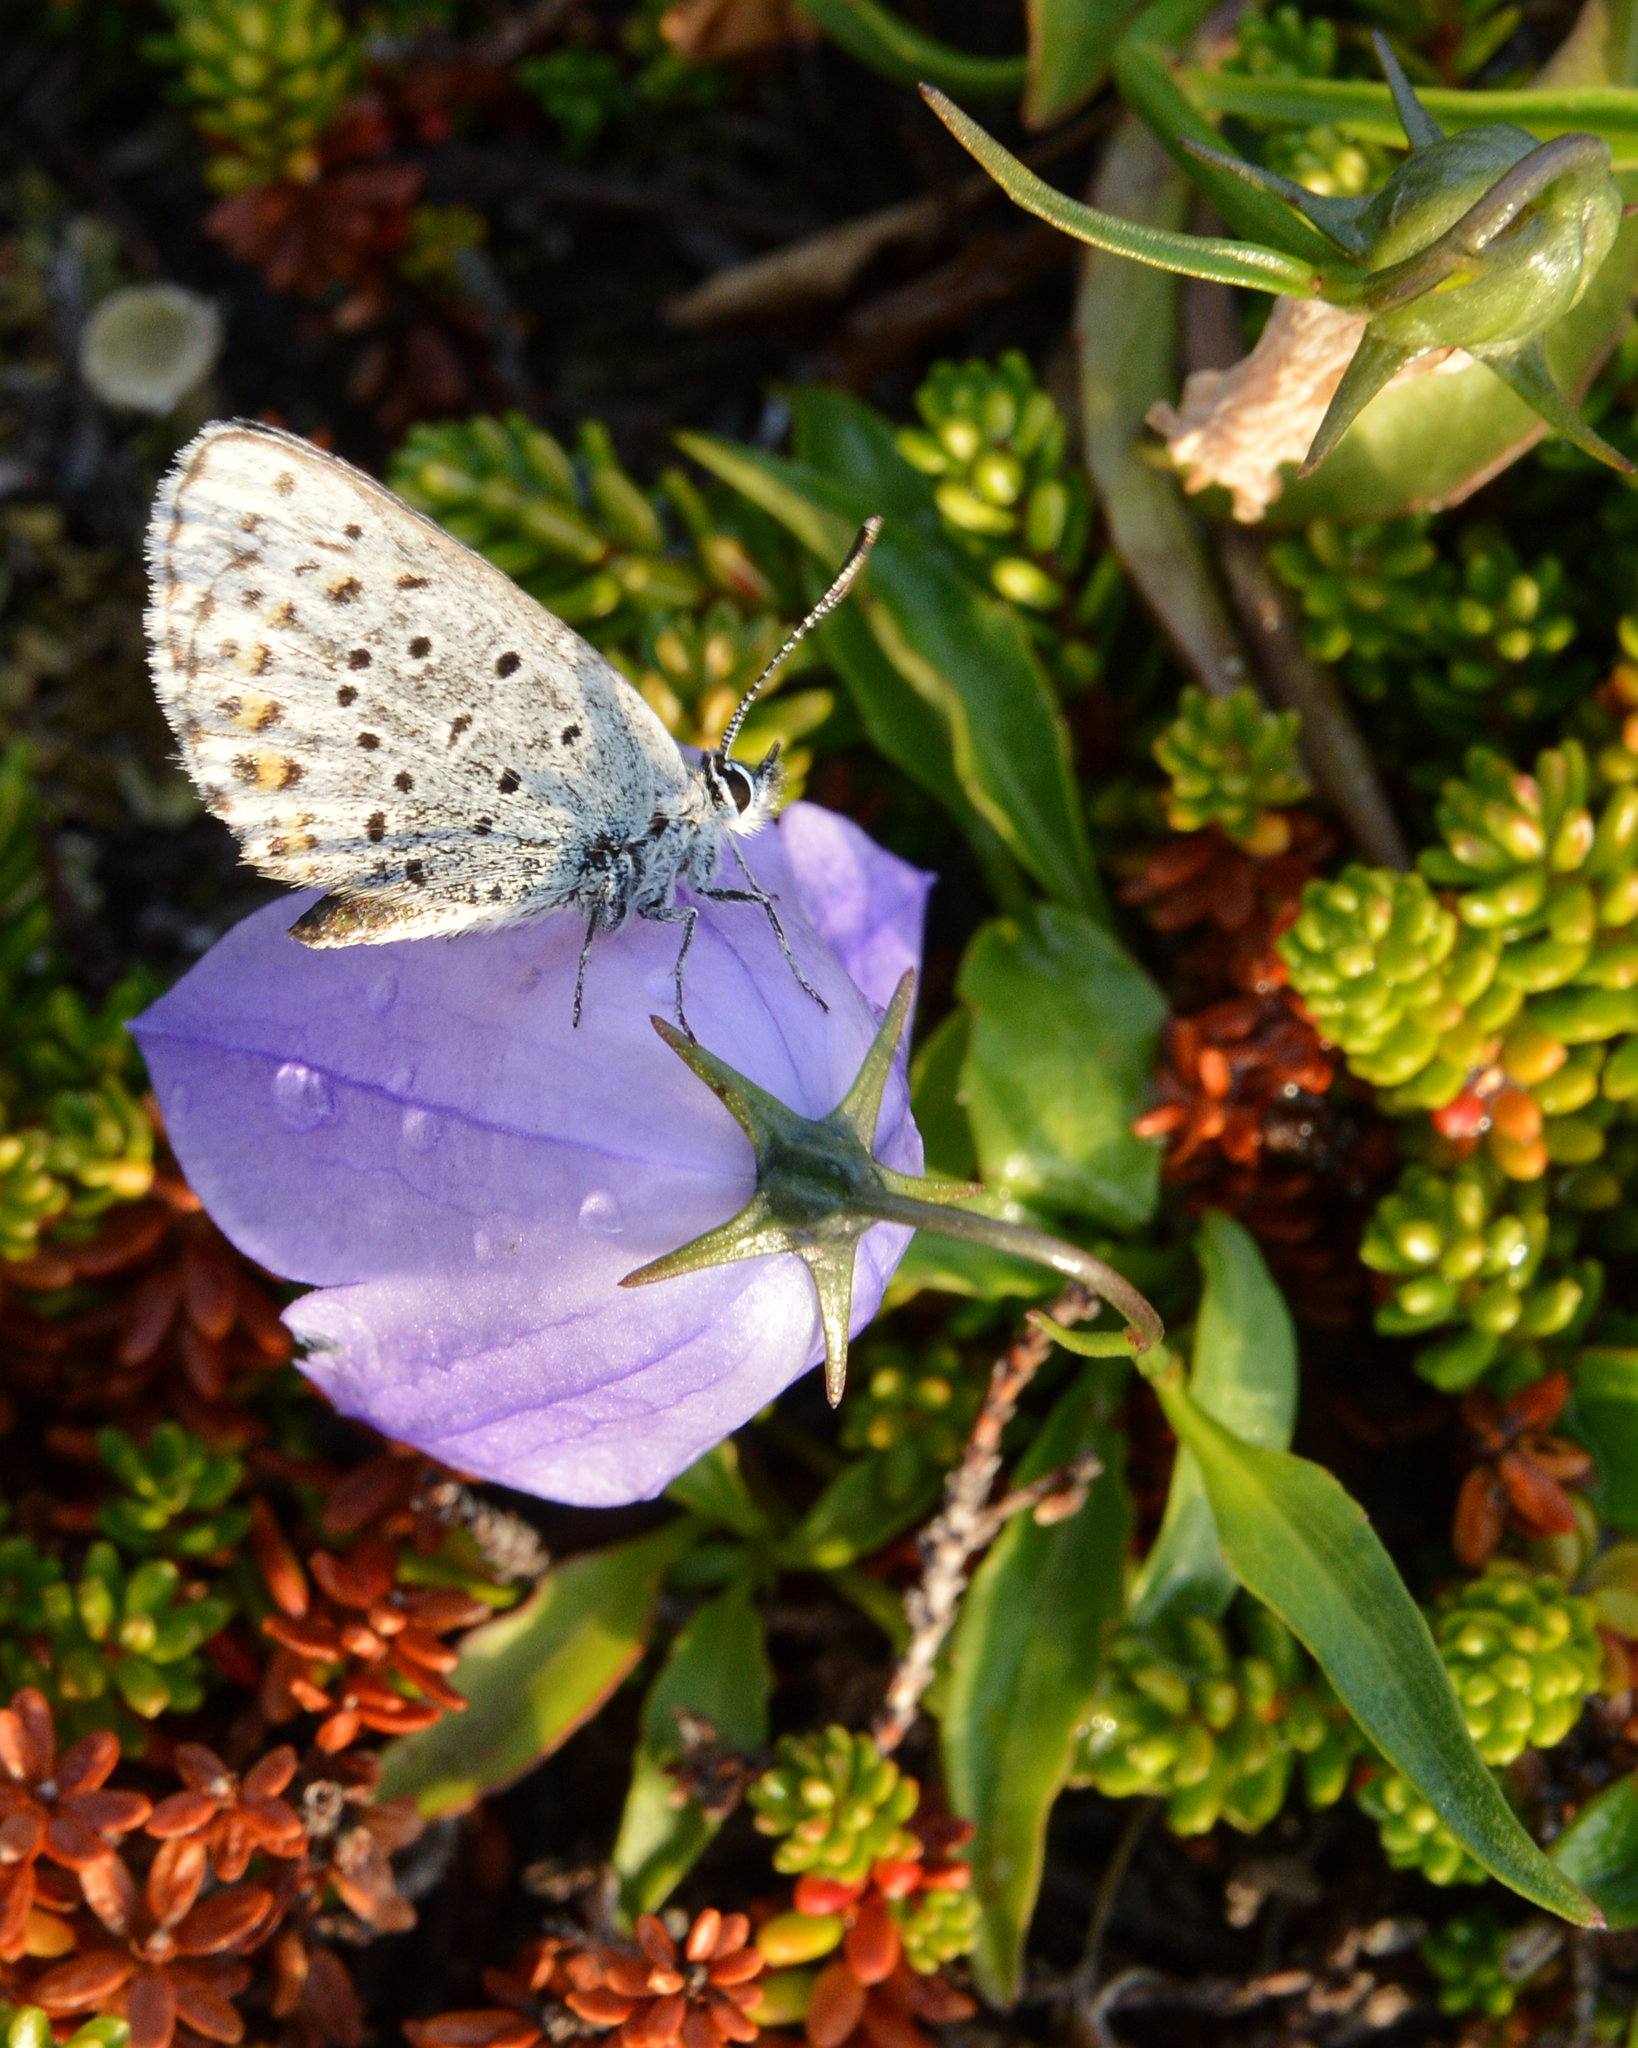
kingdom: Animalia
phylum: Arthropoda
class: Insecta
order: Lepidoptera
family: Lycaenidae
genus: Lycaeides
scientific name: Lycaeides idas
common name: Northern blue
